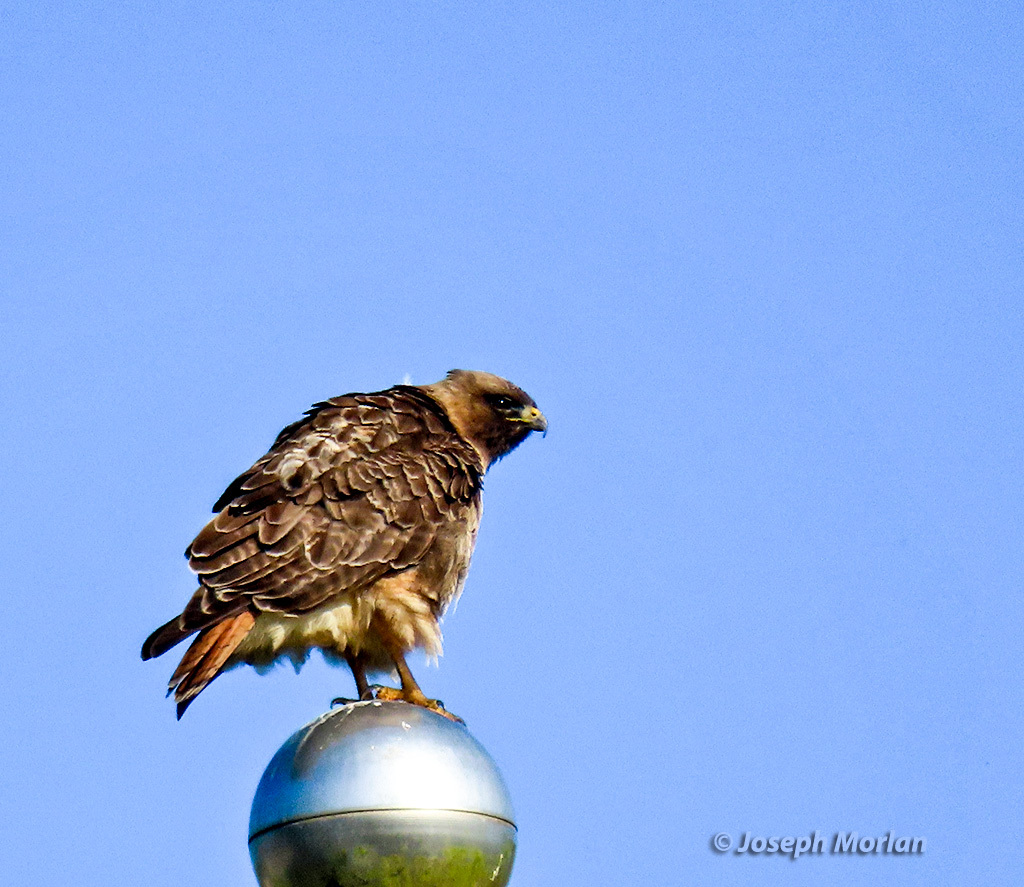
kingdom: Animalia
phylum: Chordata
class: Aves
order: Accipitriformes
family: Accipitridae
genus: Buteo
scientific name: Buteo jamaicensis
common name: Red-tailed hawk
